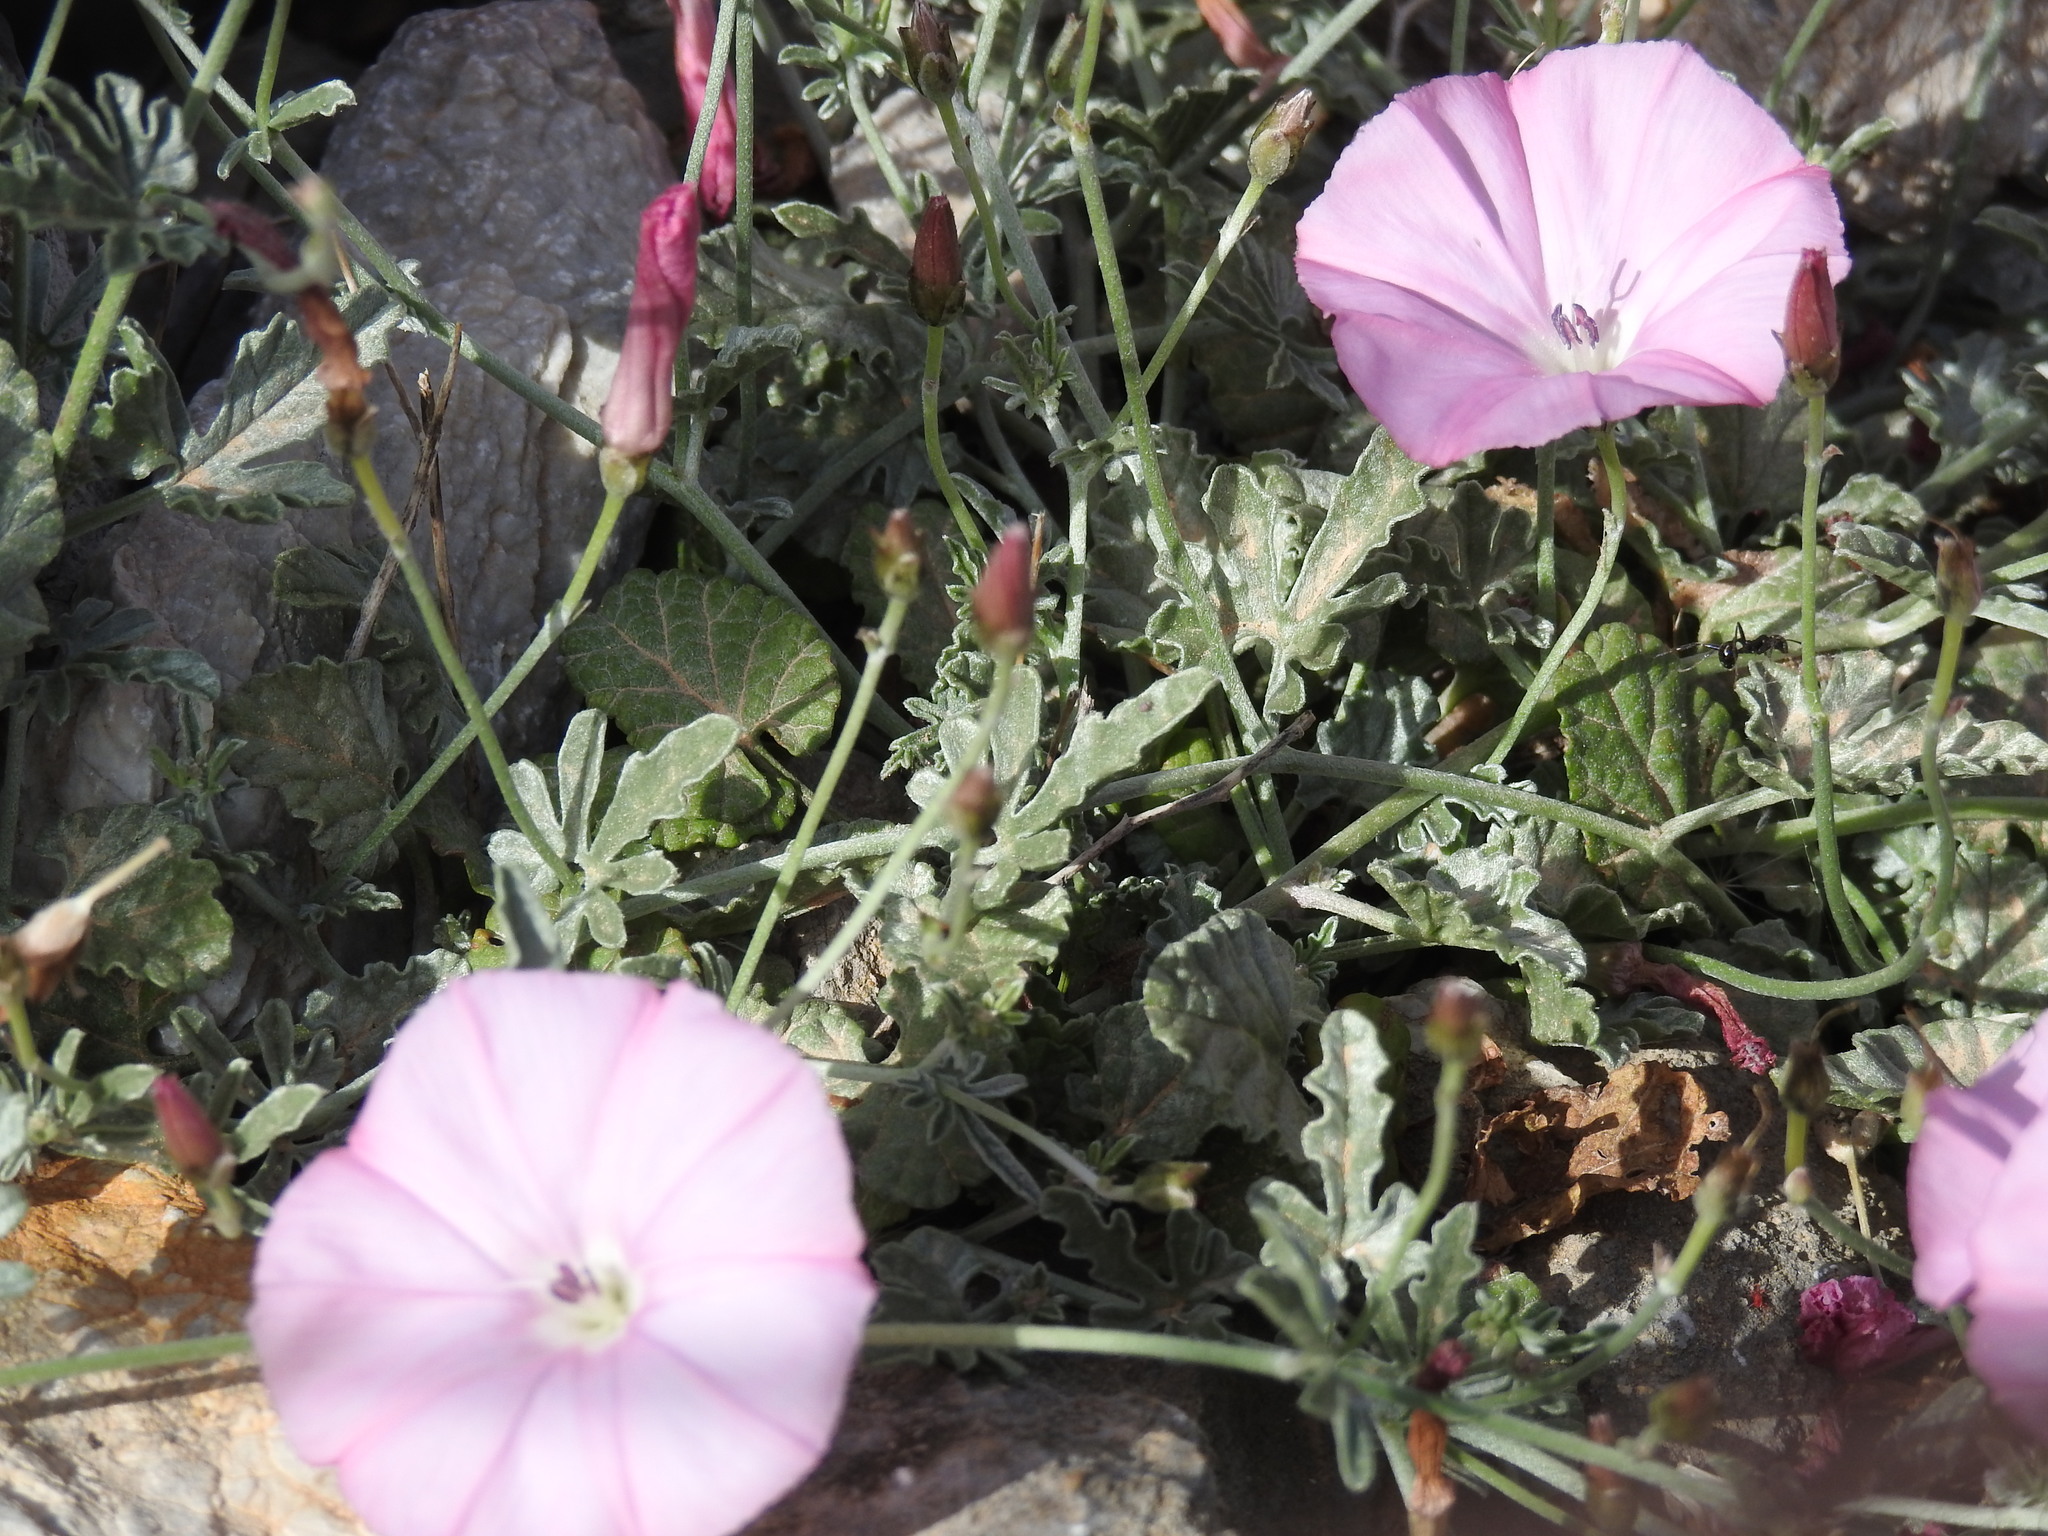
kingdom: Plantae
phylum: Tracheophyta
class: Magnoliopsida
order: Solanales
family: Convolvulaceae
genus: Convolvulus
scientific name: Convolvulus elegantissimus
